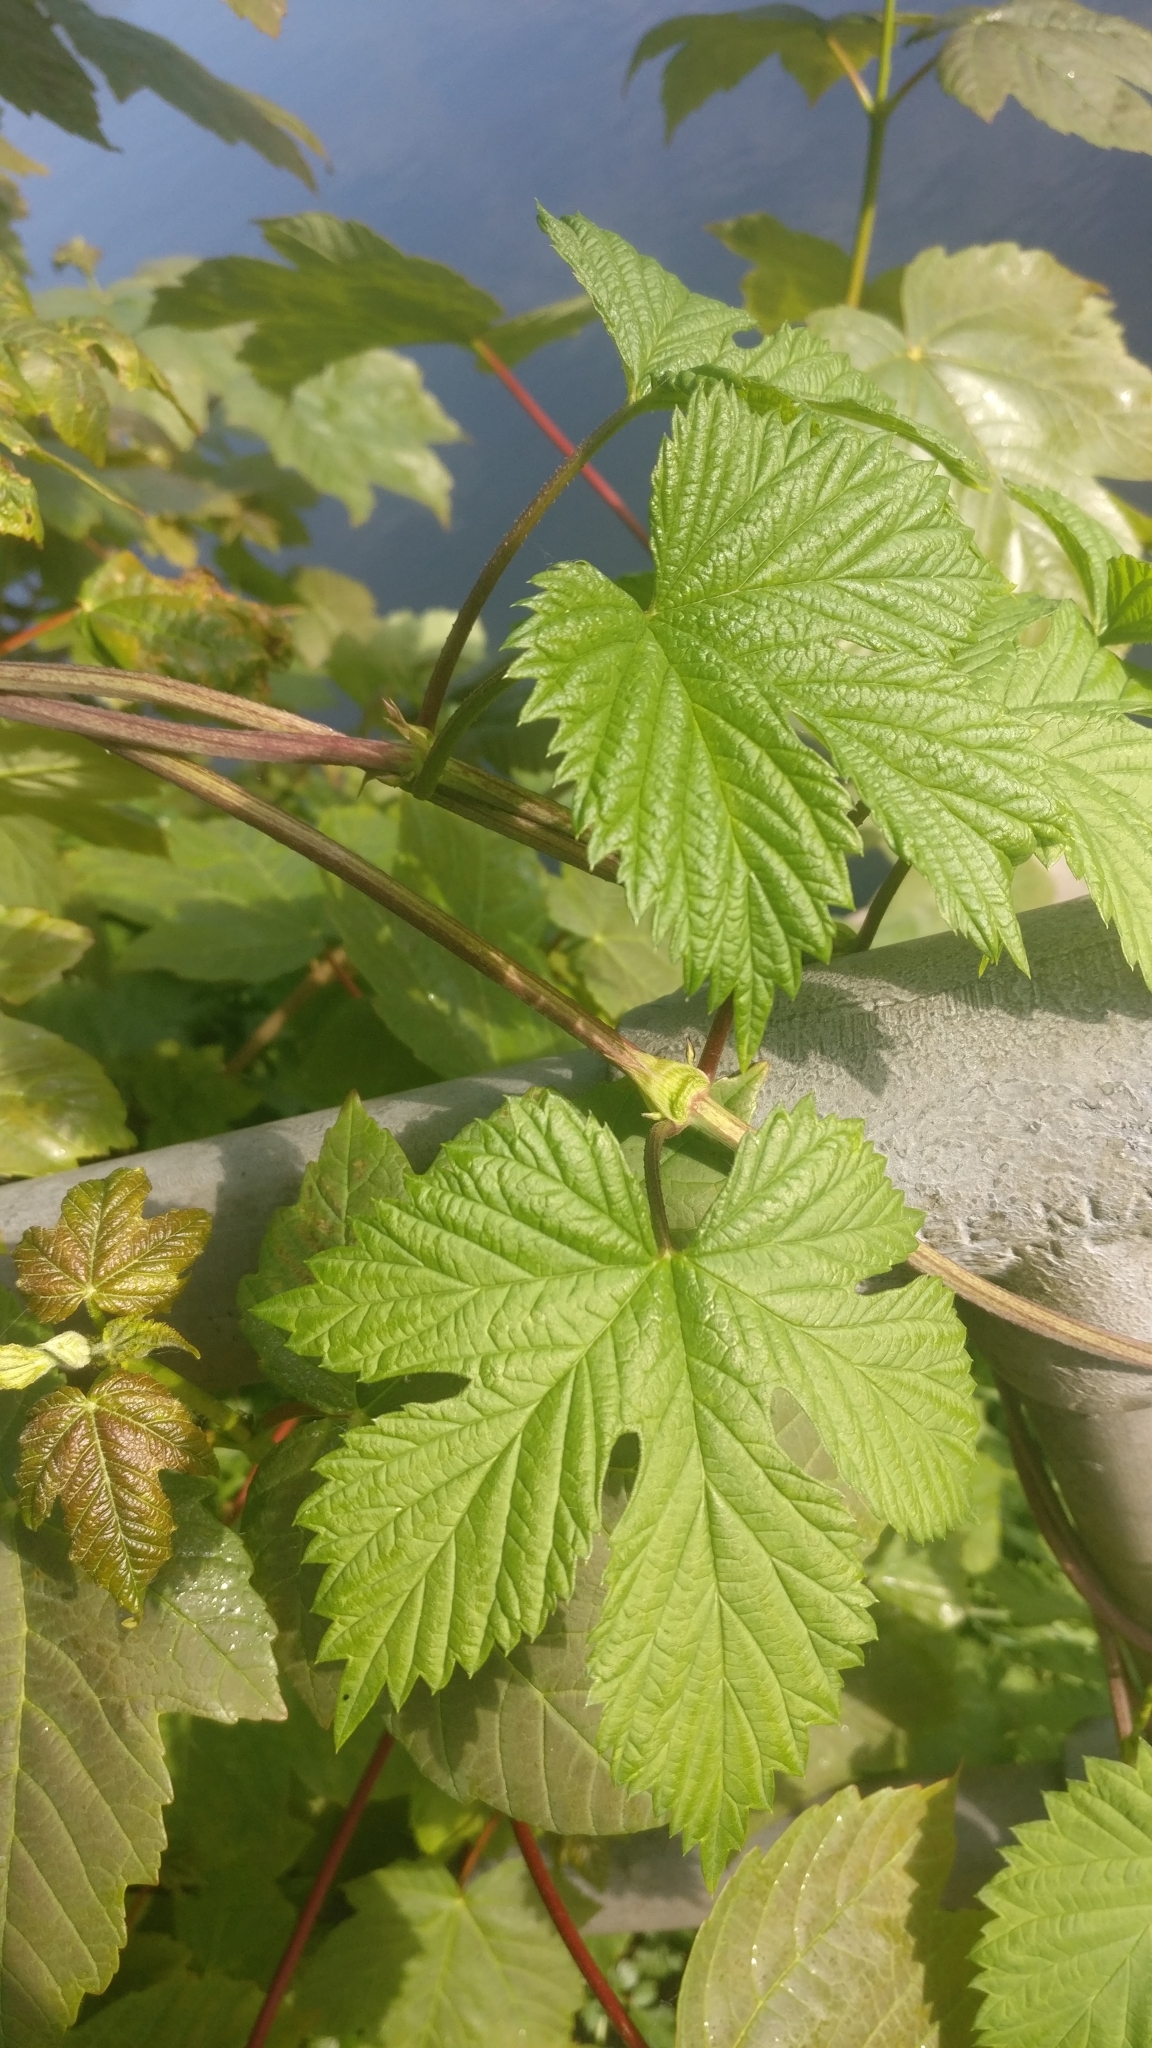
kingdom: Plantae
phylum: Tracheophyta
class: Magnoliopsida
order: Rosales
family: Cannabaceae
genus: Humulus
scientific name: Humulus lupulus
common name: Hop
